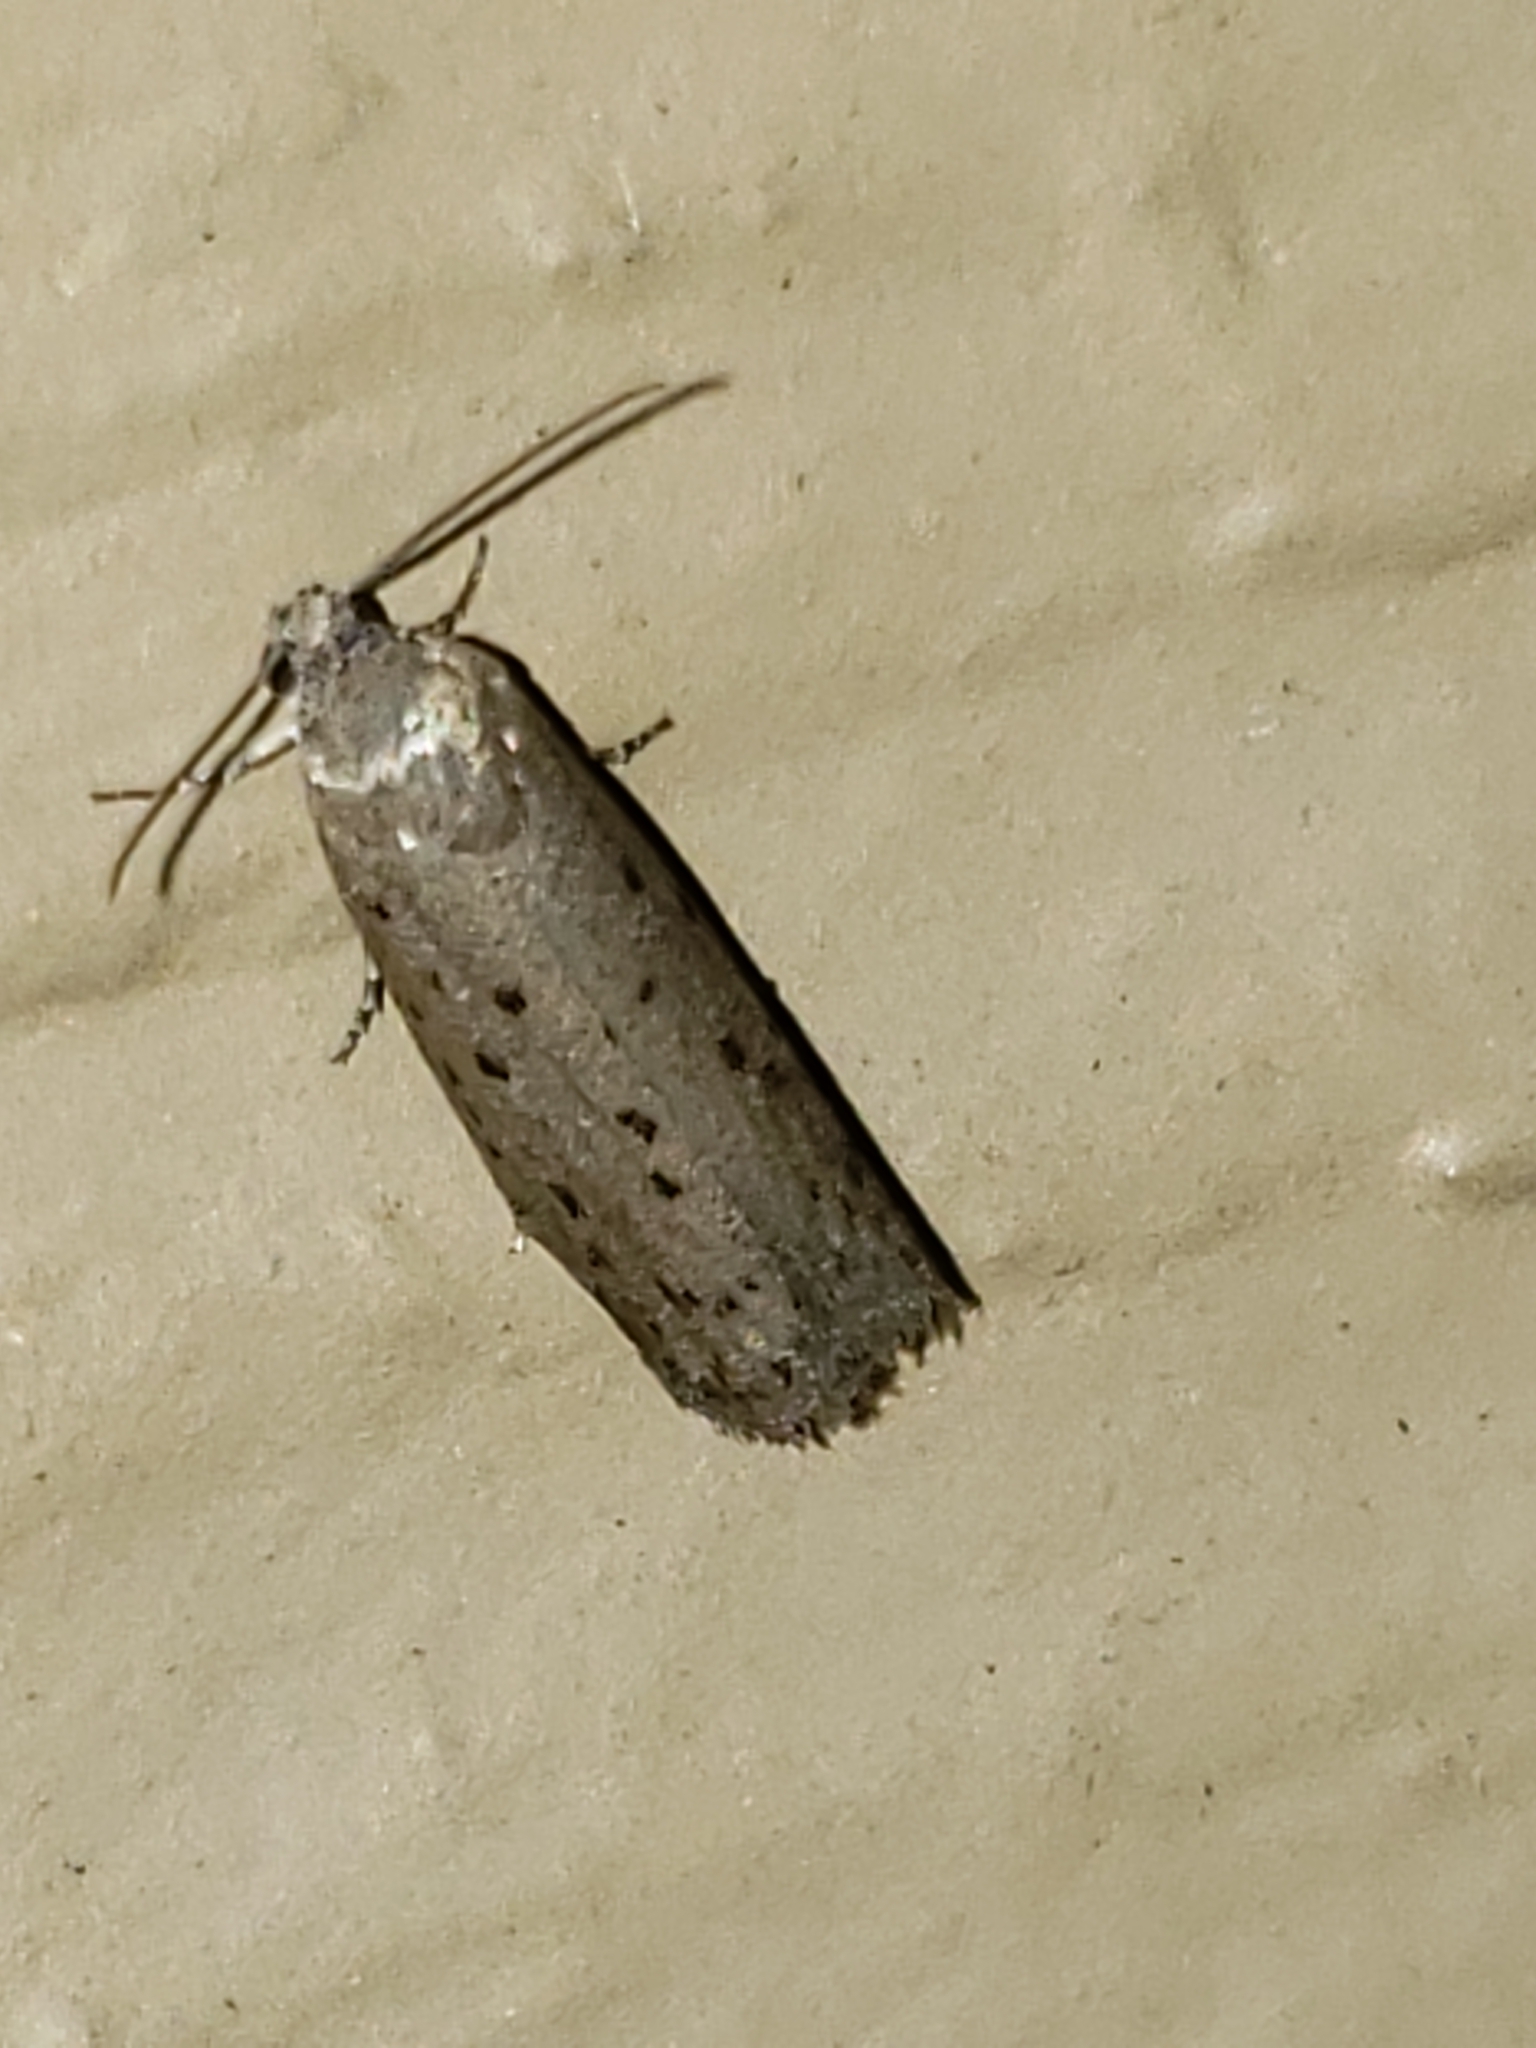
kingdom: Animalia
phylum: Arthropoda
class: Insecta
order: Lepidoptera
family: Galacticidae
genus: Homadaula
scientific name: Homadaula anisocentra
